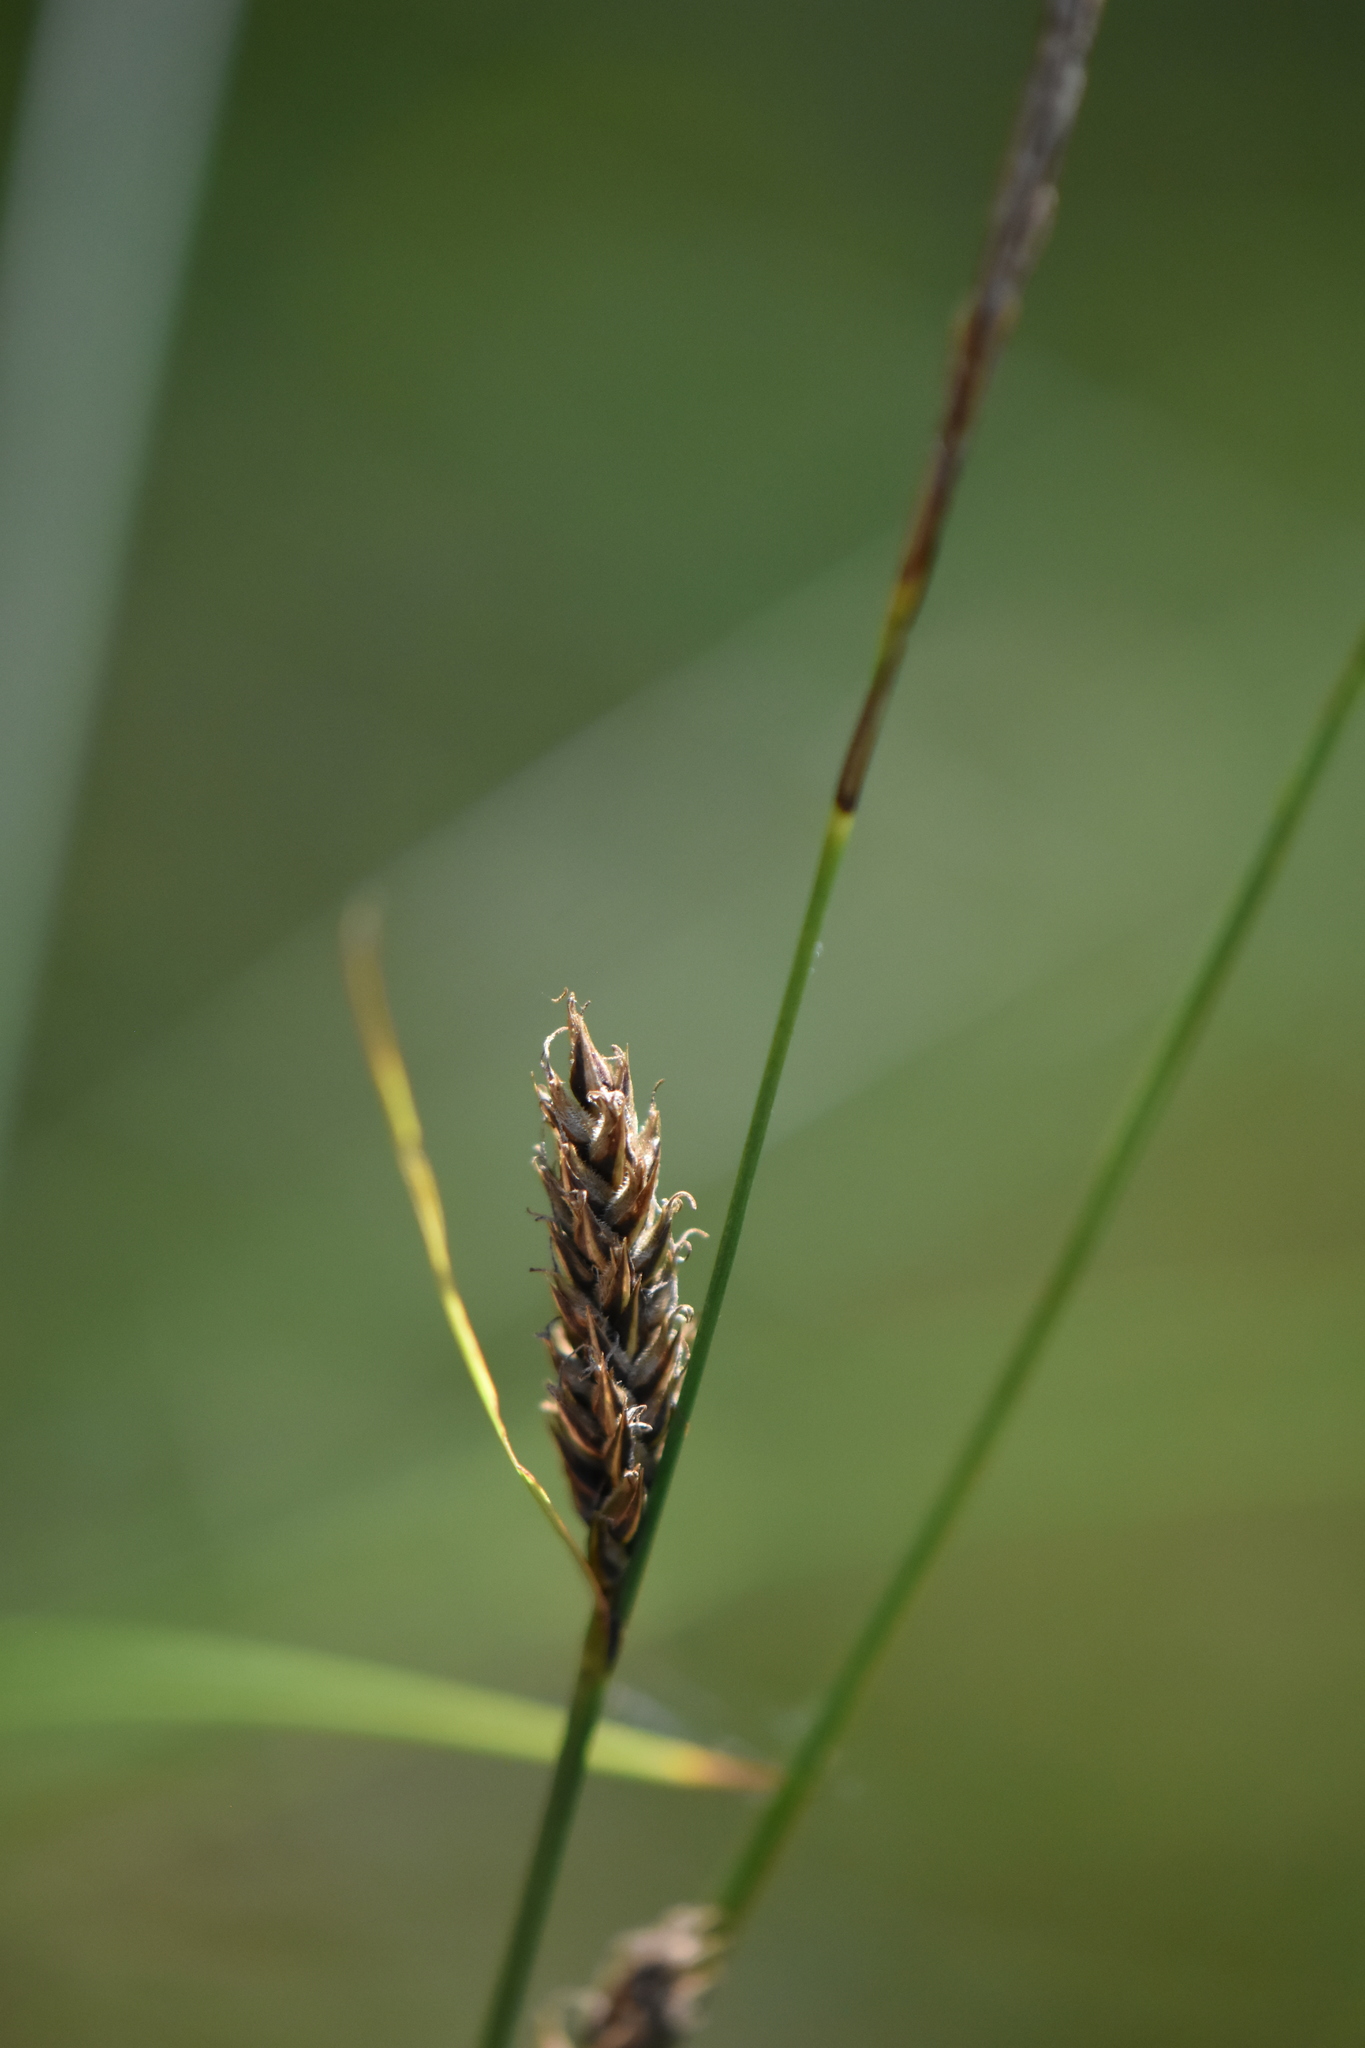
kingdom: Plantae
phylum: Tracheophyta
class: Liliopsida
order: Poales
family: Cyperaceae
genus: Carex
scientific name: Carex lasiocarpa
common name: Slender sedge
